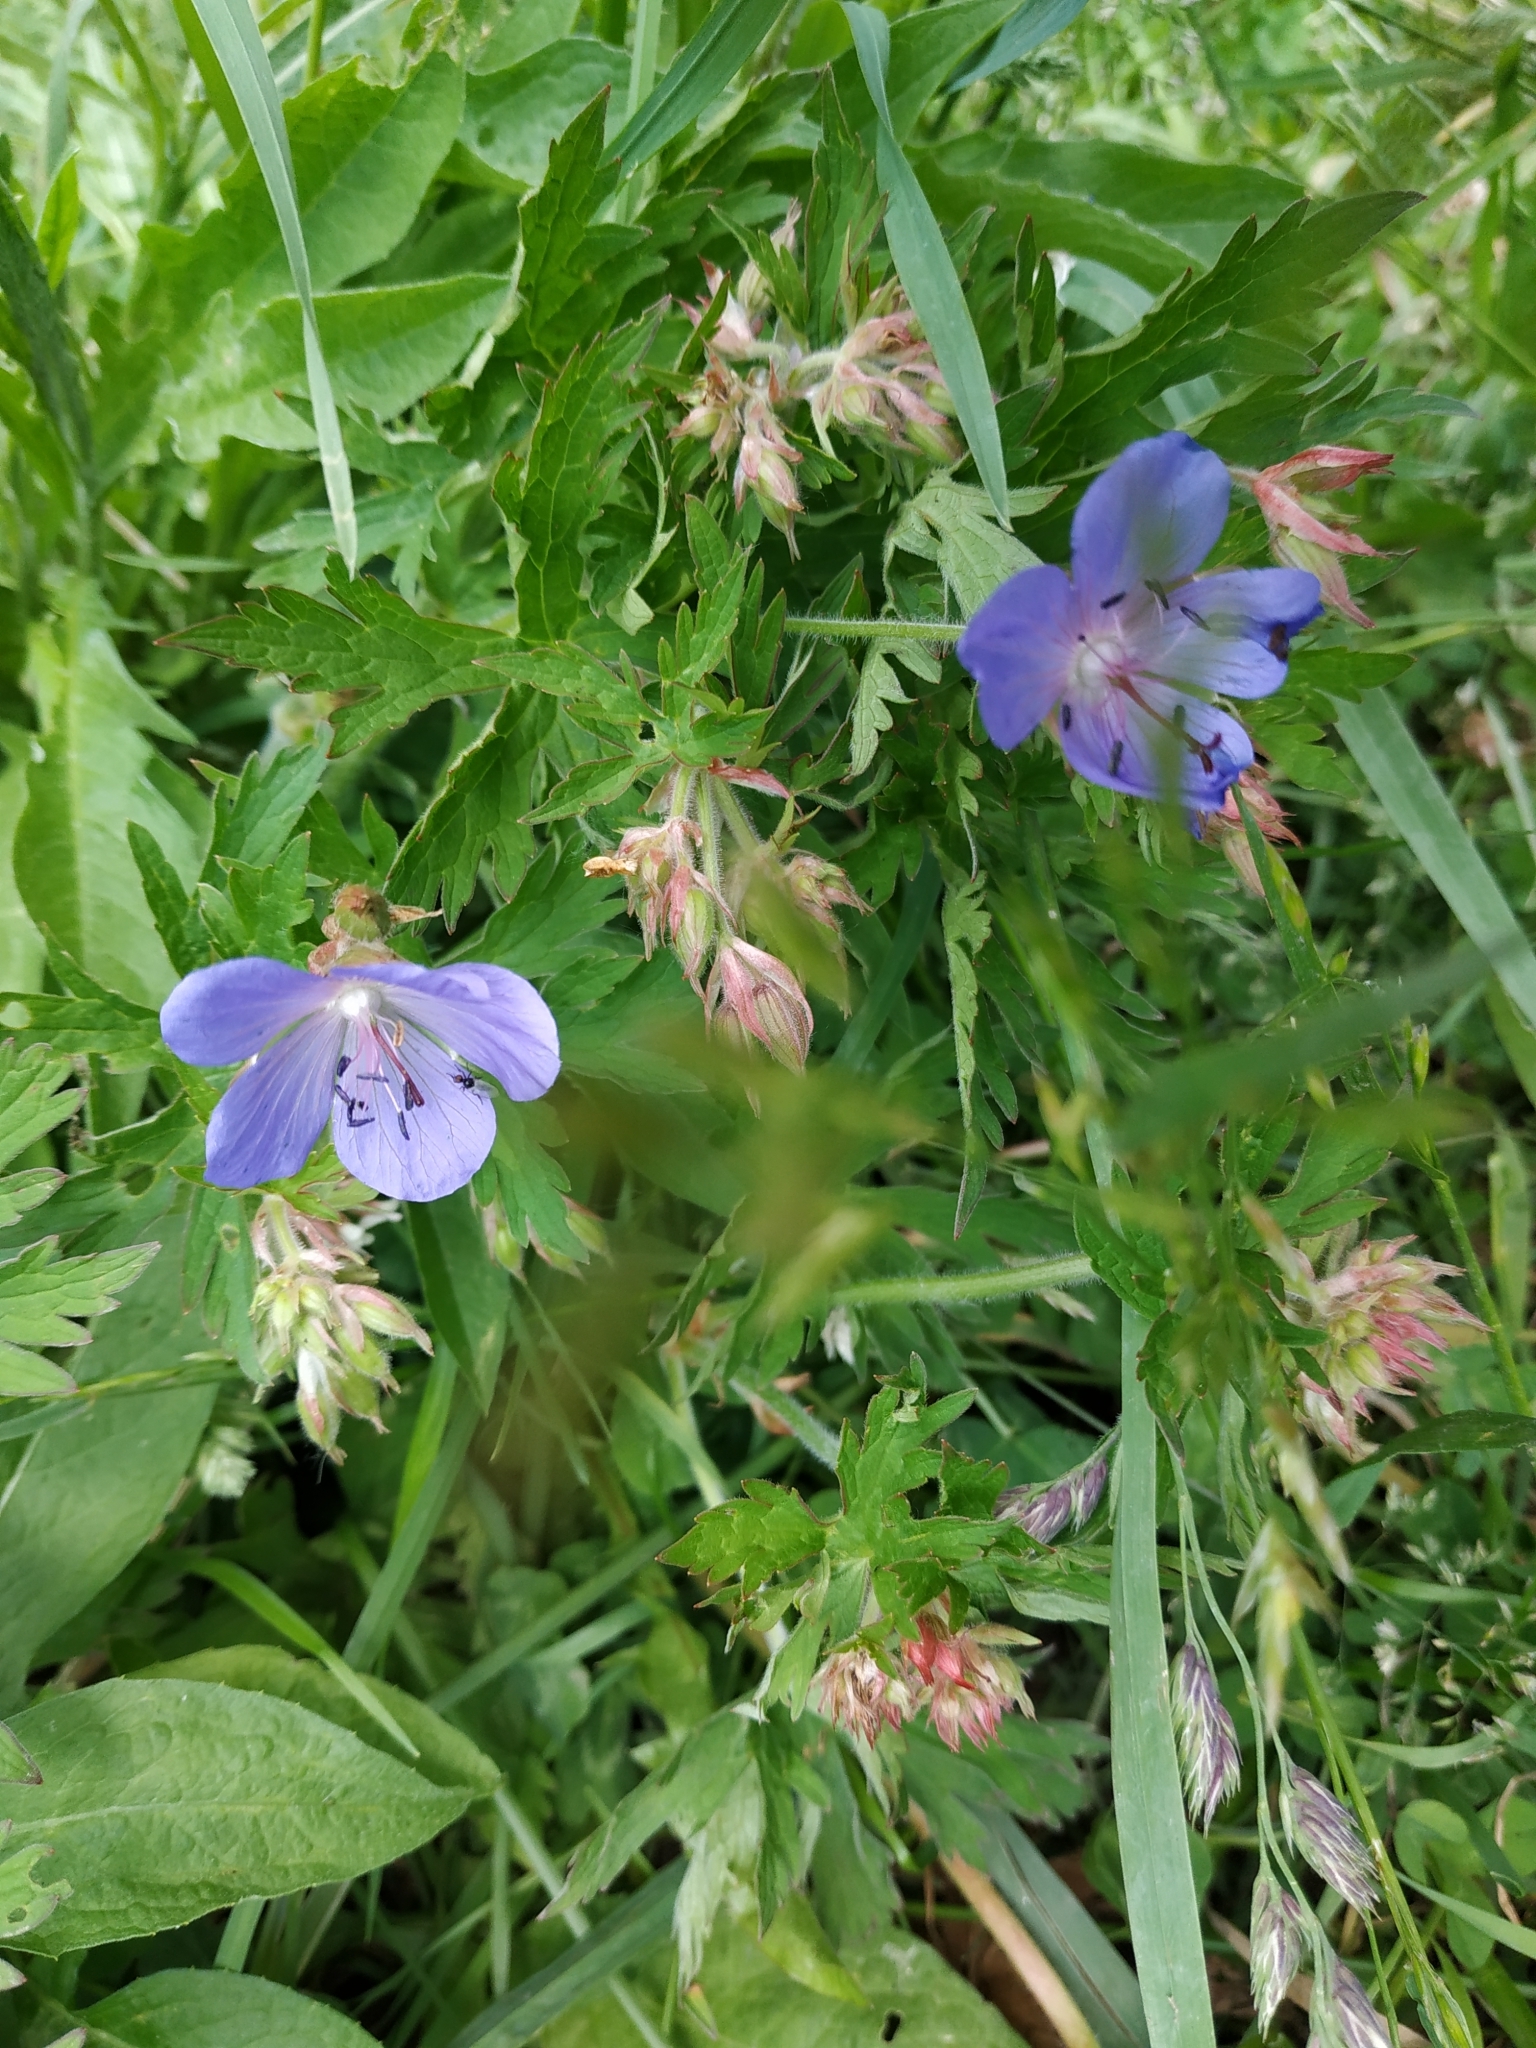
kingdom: Plantae
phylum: Tracheophyta
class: Magnoliopsida
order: Geraniales
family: Geraniaceae
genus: Geranium
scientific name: Geranium pratense
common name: Meadow crane's-bill
